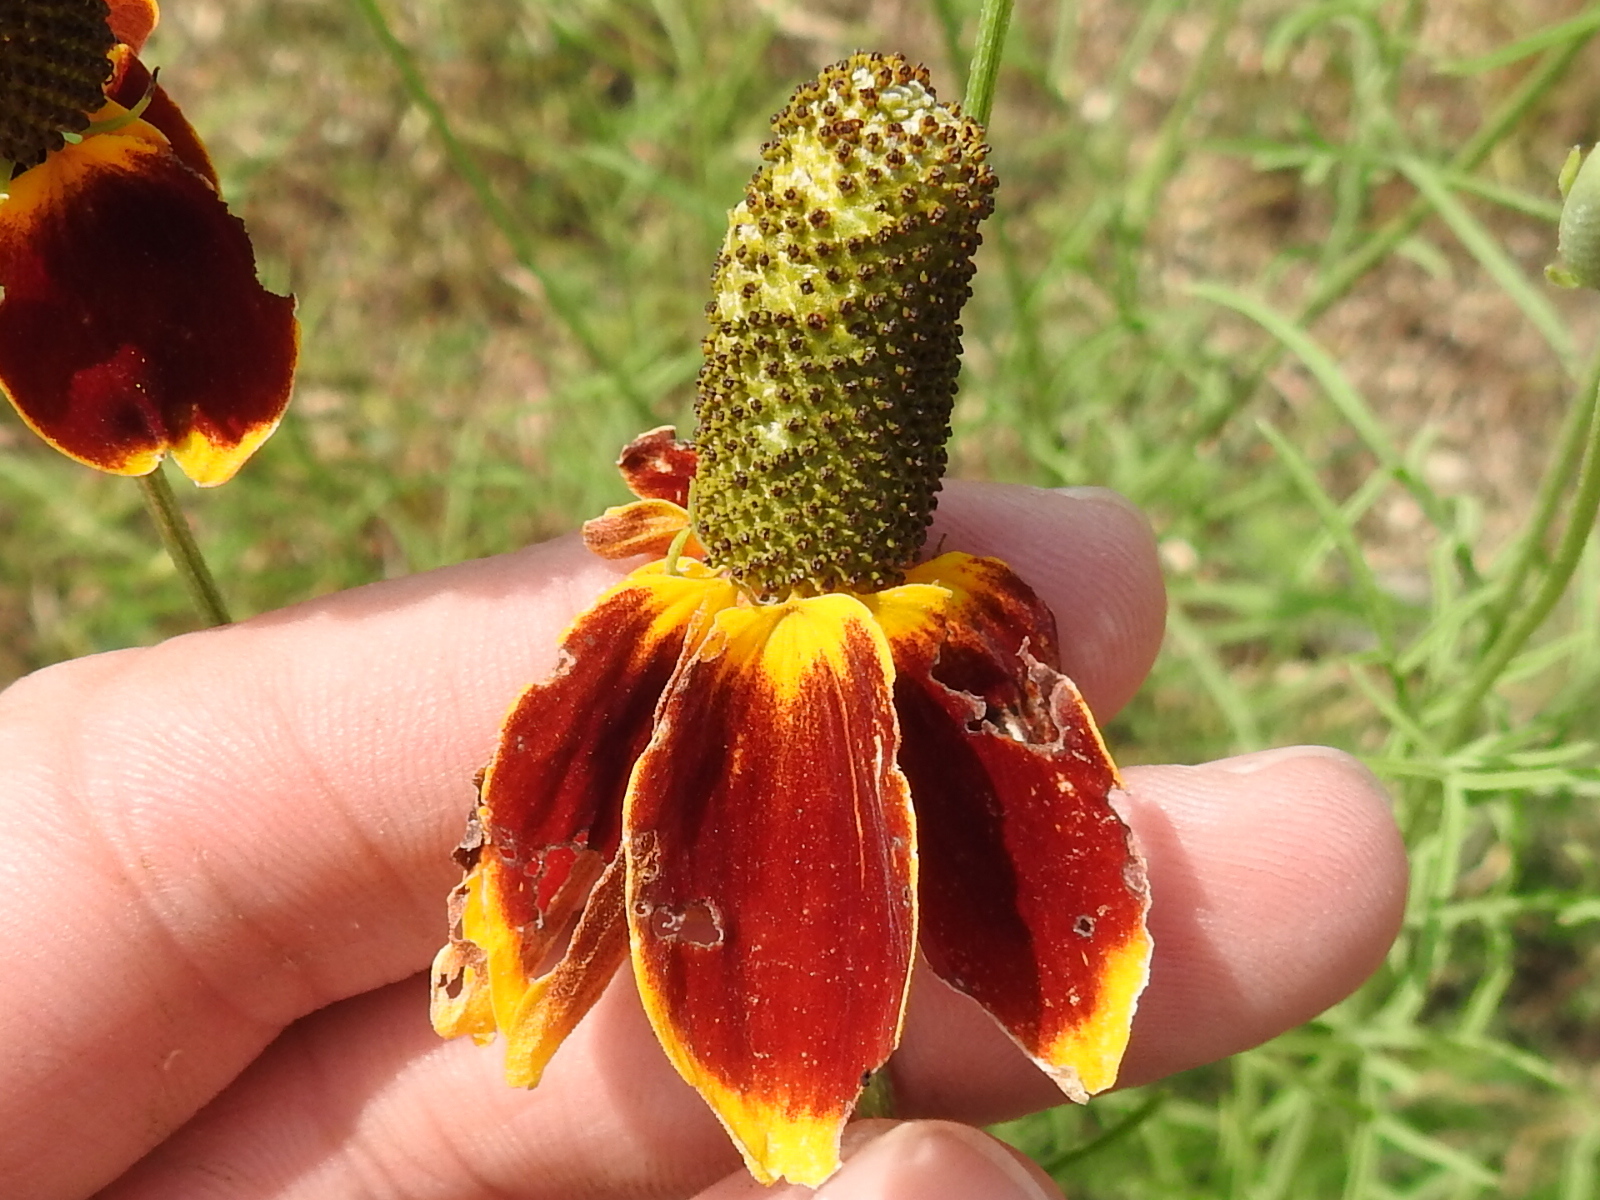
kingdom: Plantae
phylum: Tracheophyta
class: Magnoliopsida
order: Asterales
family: Asteraceae
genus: Ratibida
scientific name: Ratibida columnifera
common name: Prairie coneflower
